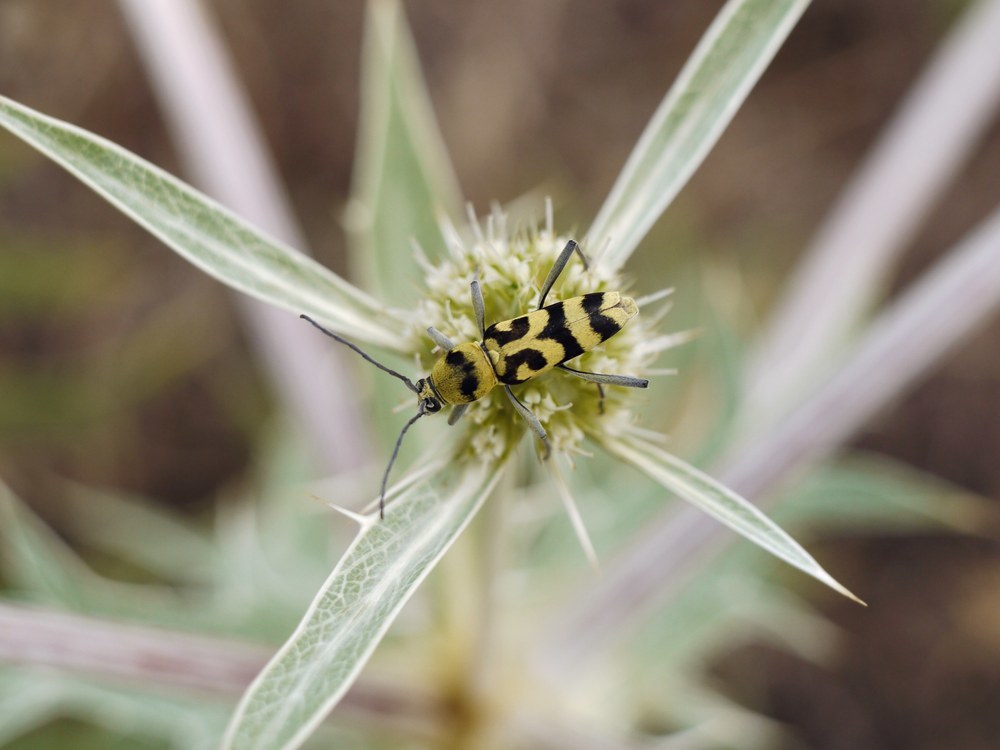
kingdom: Animalia
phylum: Arthropoda
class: Insecta
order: Coleoptera
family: Cerambycidae
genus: Chlorophorus
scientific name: Chlorophorus varius
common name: Grape wood borer
